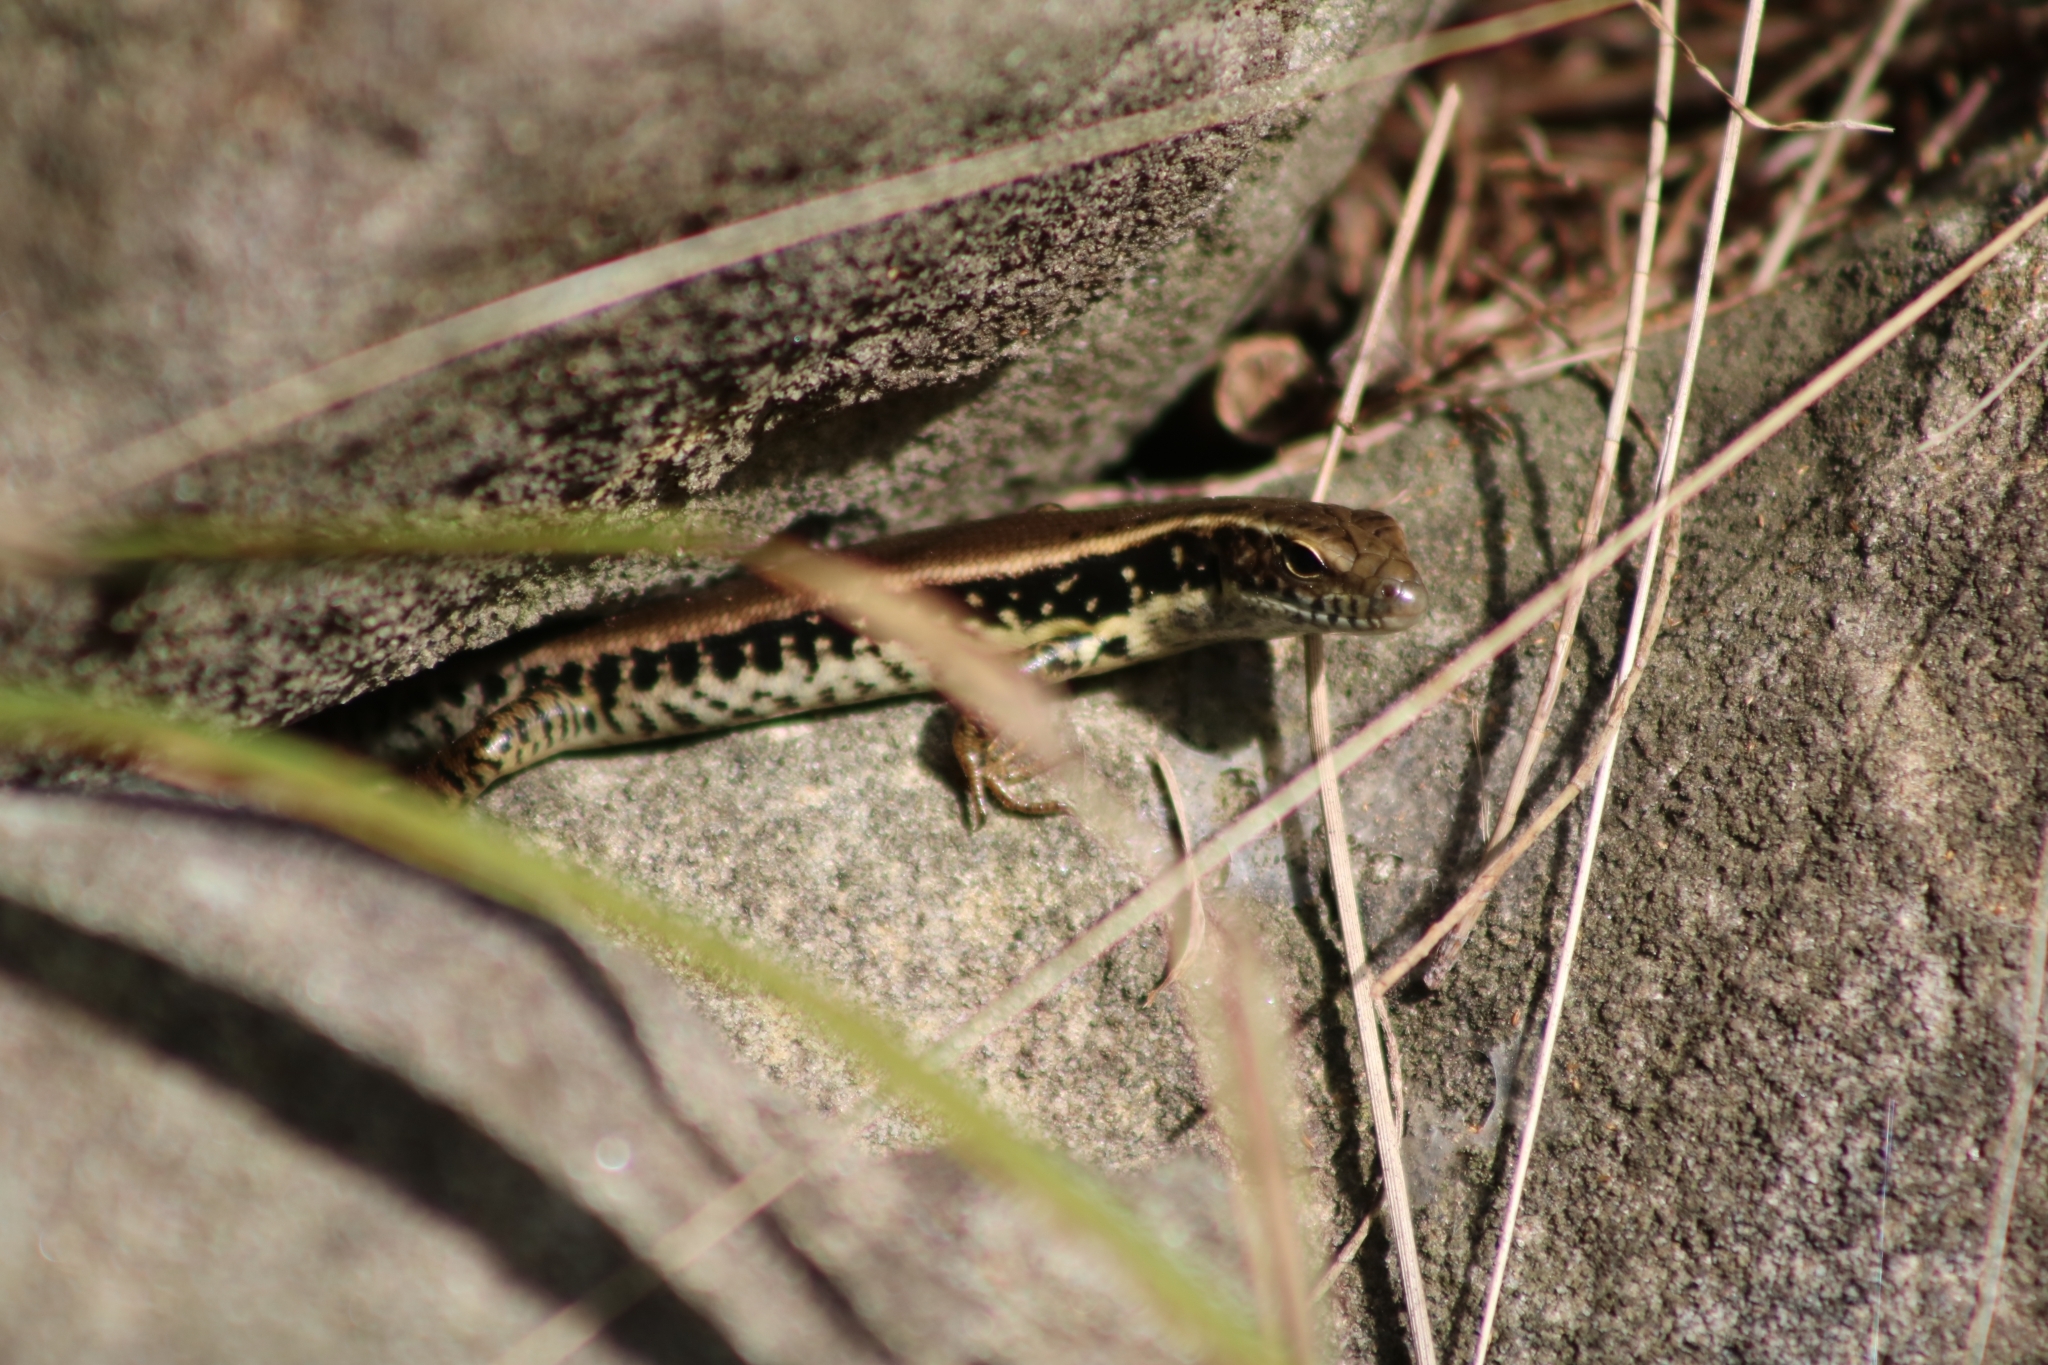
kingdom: Animalia
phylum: Chordata
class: Squamata
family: Scincidae
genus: Eulamprus
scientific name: Eulamprus quoyii
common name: Eastern water skink
